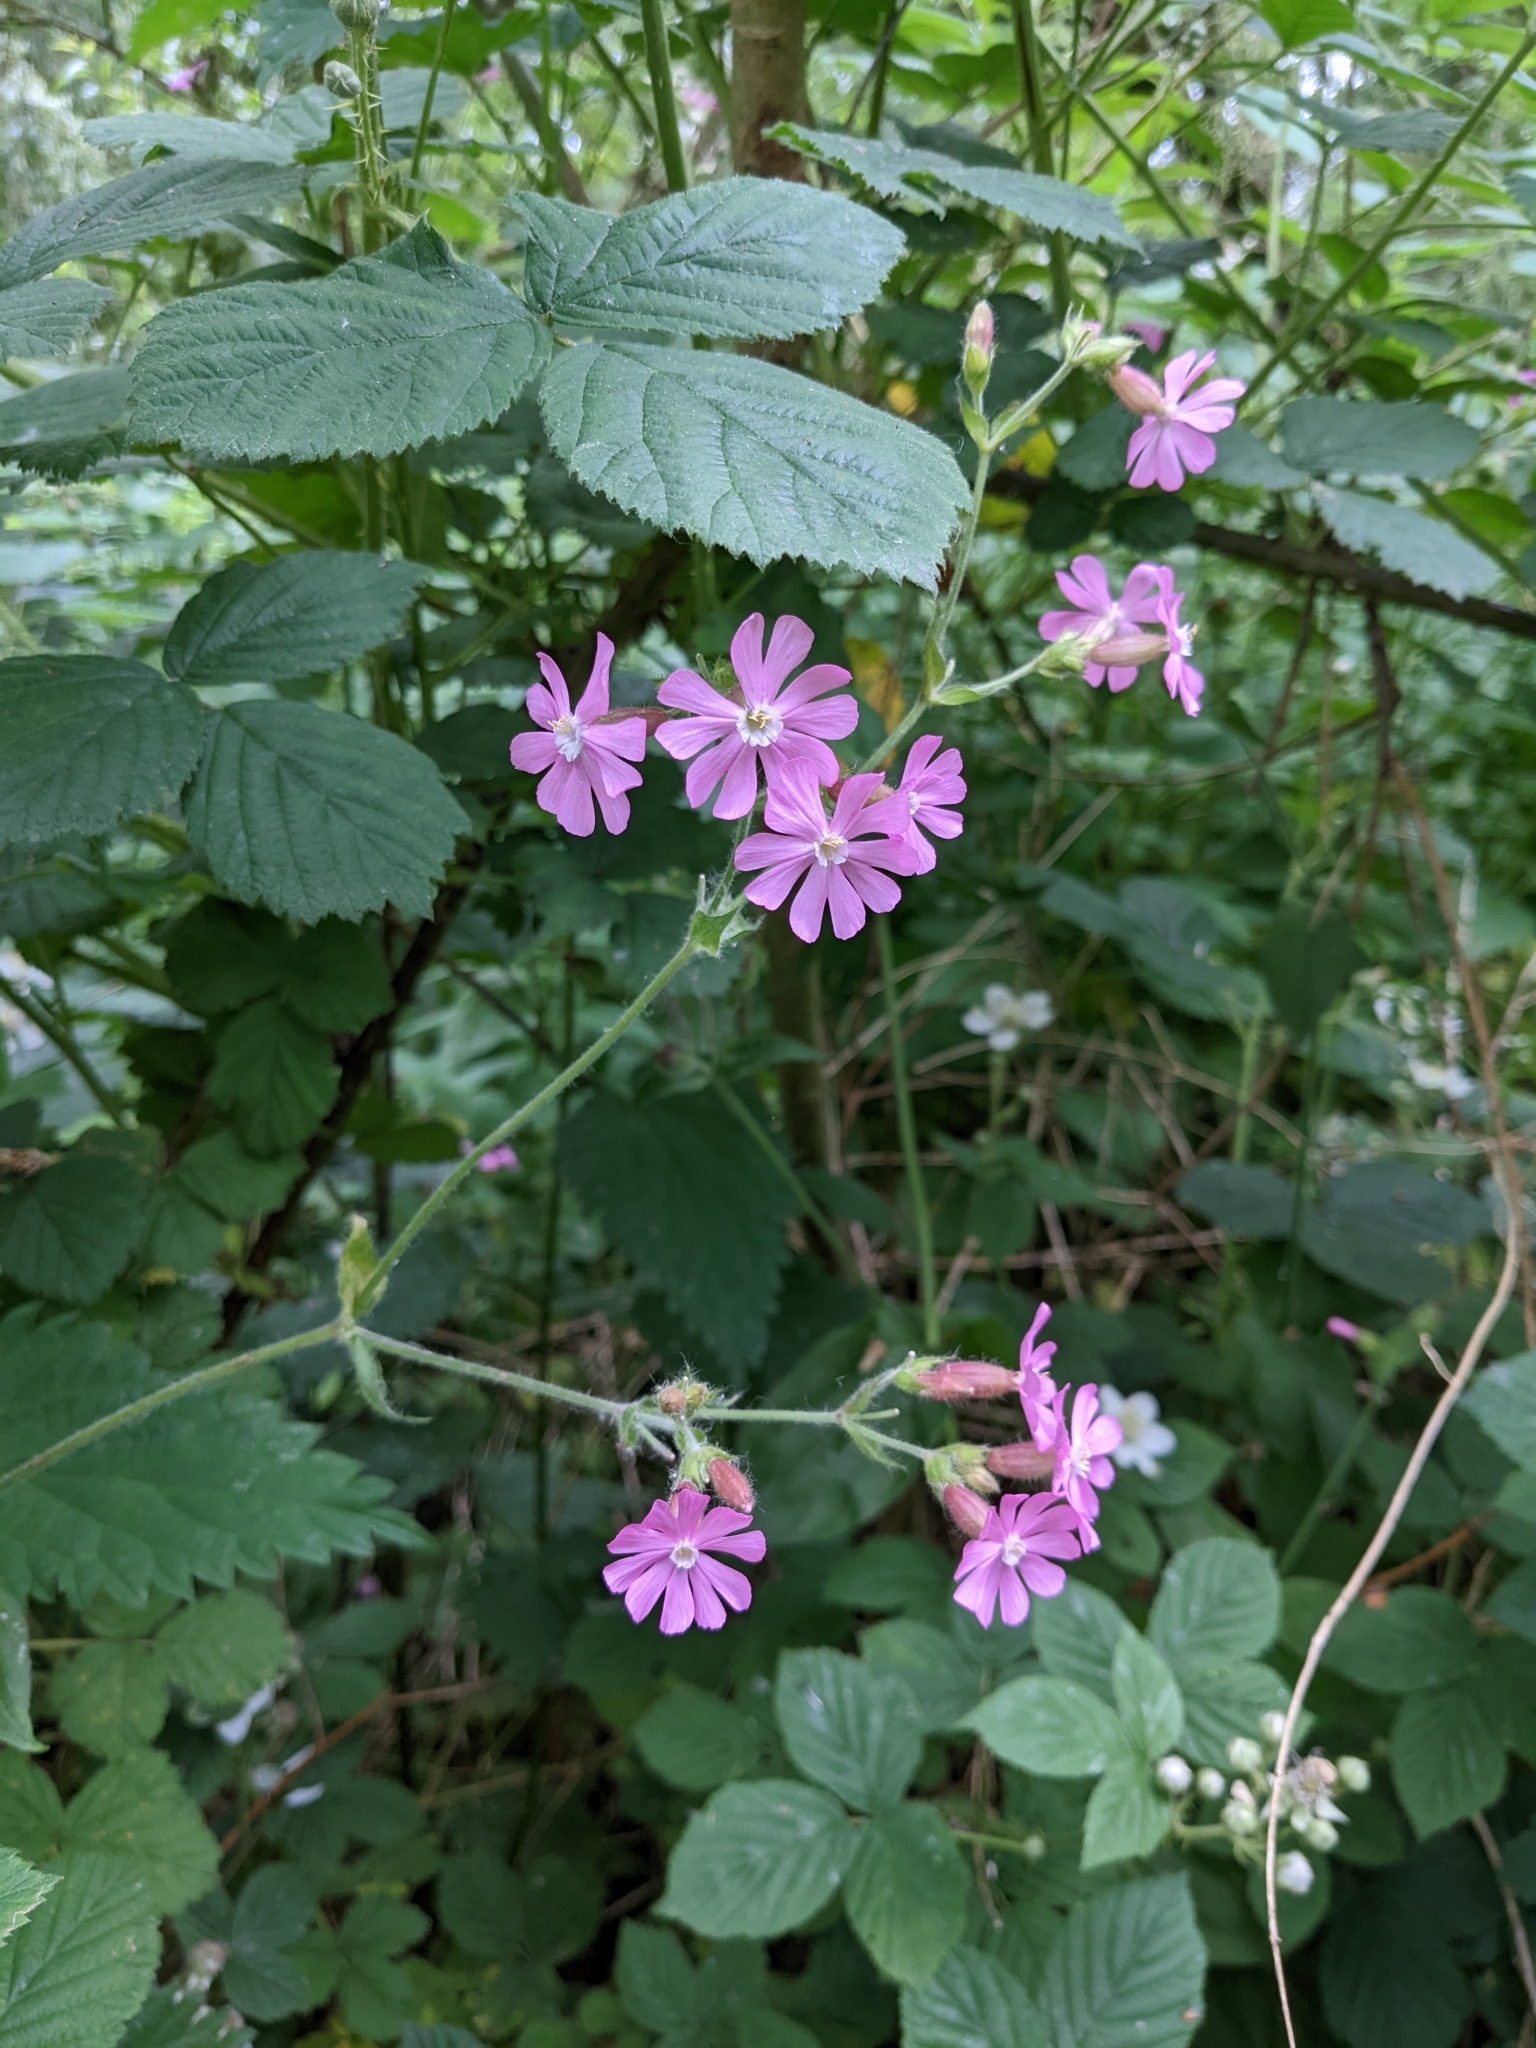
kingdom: Plantae
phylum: Tracheophyta
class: Magnoliopsida
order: Caryophyllales
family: Caryophyllaceae
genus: Silene
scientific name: Silene dioica
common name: Red campion
